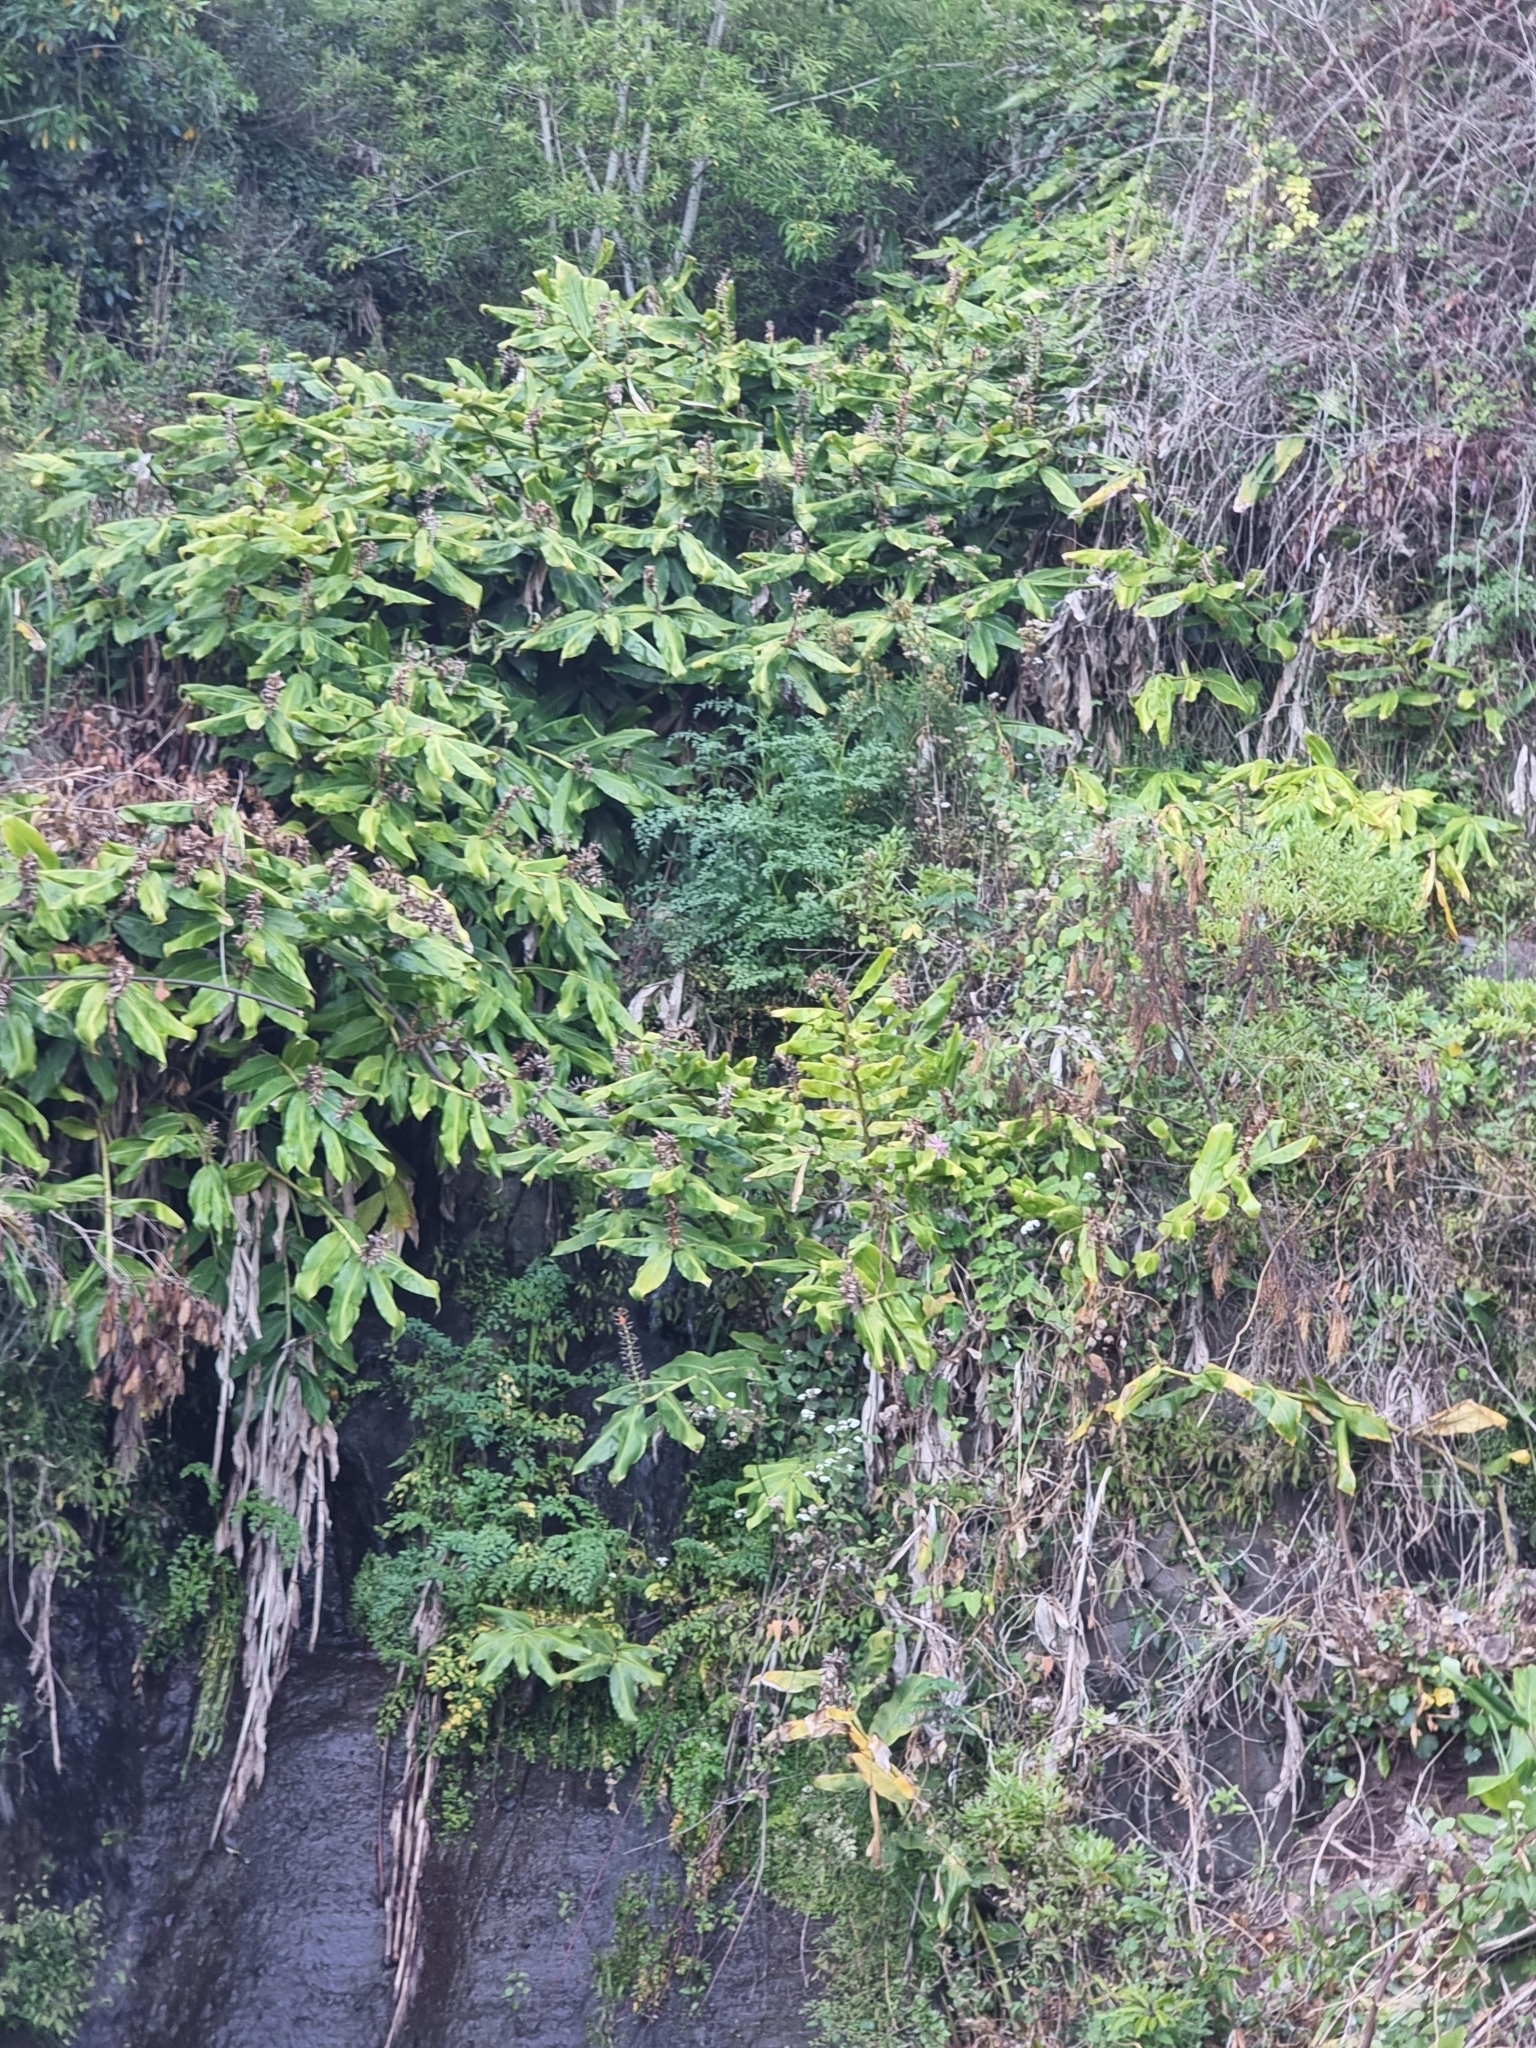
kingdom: Plantae
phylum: Tracheophyta
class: Liliopsida
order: Zingiberales
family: Zingiberaceae
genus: Hedychium
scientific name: Hedychium gardnerianum
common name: Himalayan ginger
